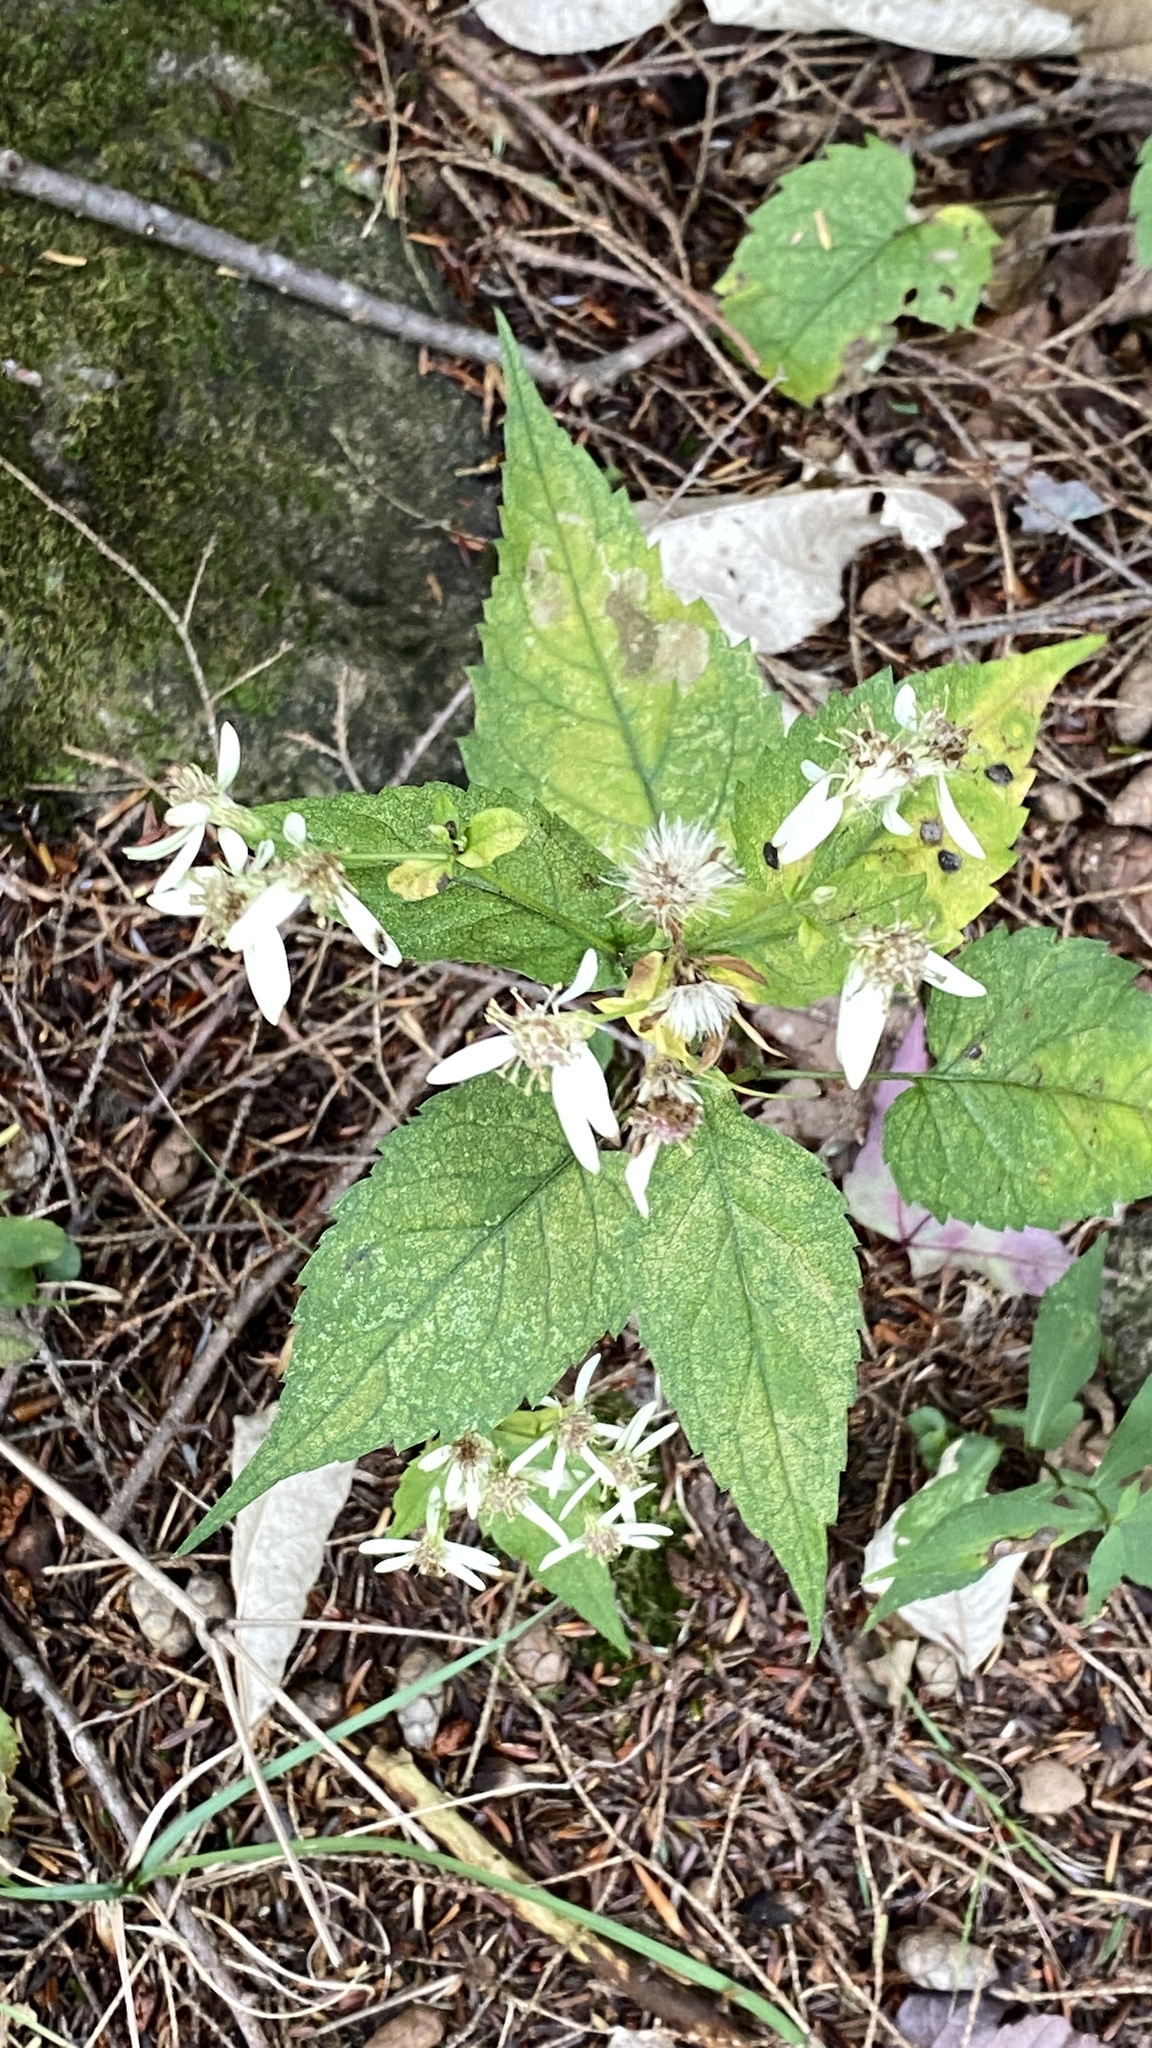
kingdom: Plantae
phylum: Tracheophyta
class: Magnoliopsida
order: Asterales
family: Asteraceae
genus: Eurybia
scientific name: Eurybia divaricata
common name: White wood aster
